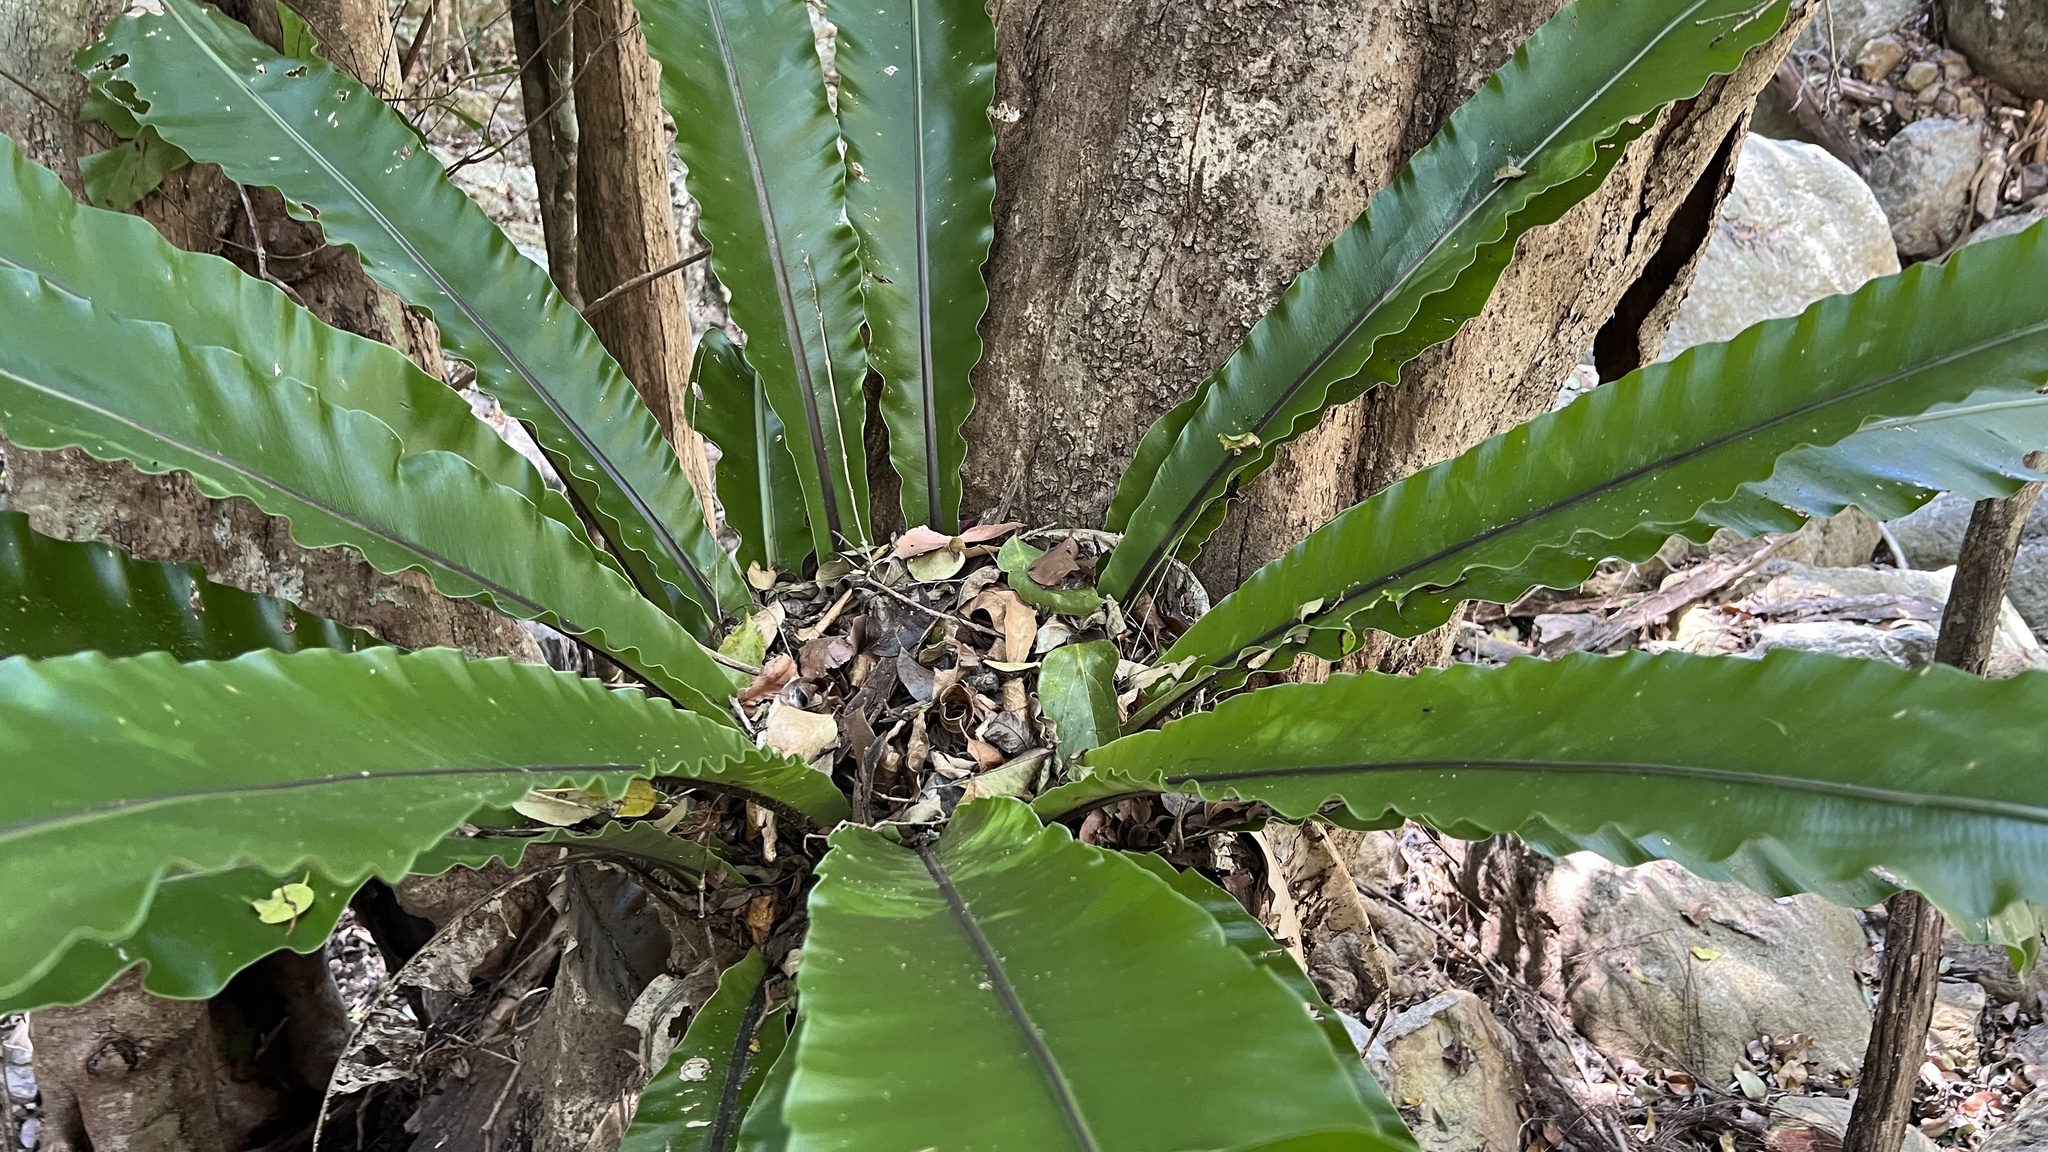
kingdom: Plantae
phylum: Tracheophyta
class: Polypodiopsida
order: Polypodiales
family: Aspleniaceae
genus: Asplenium
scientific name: Asplenium australasicum
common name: Bird's-nest fern
